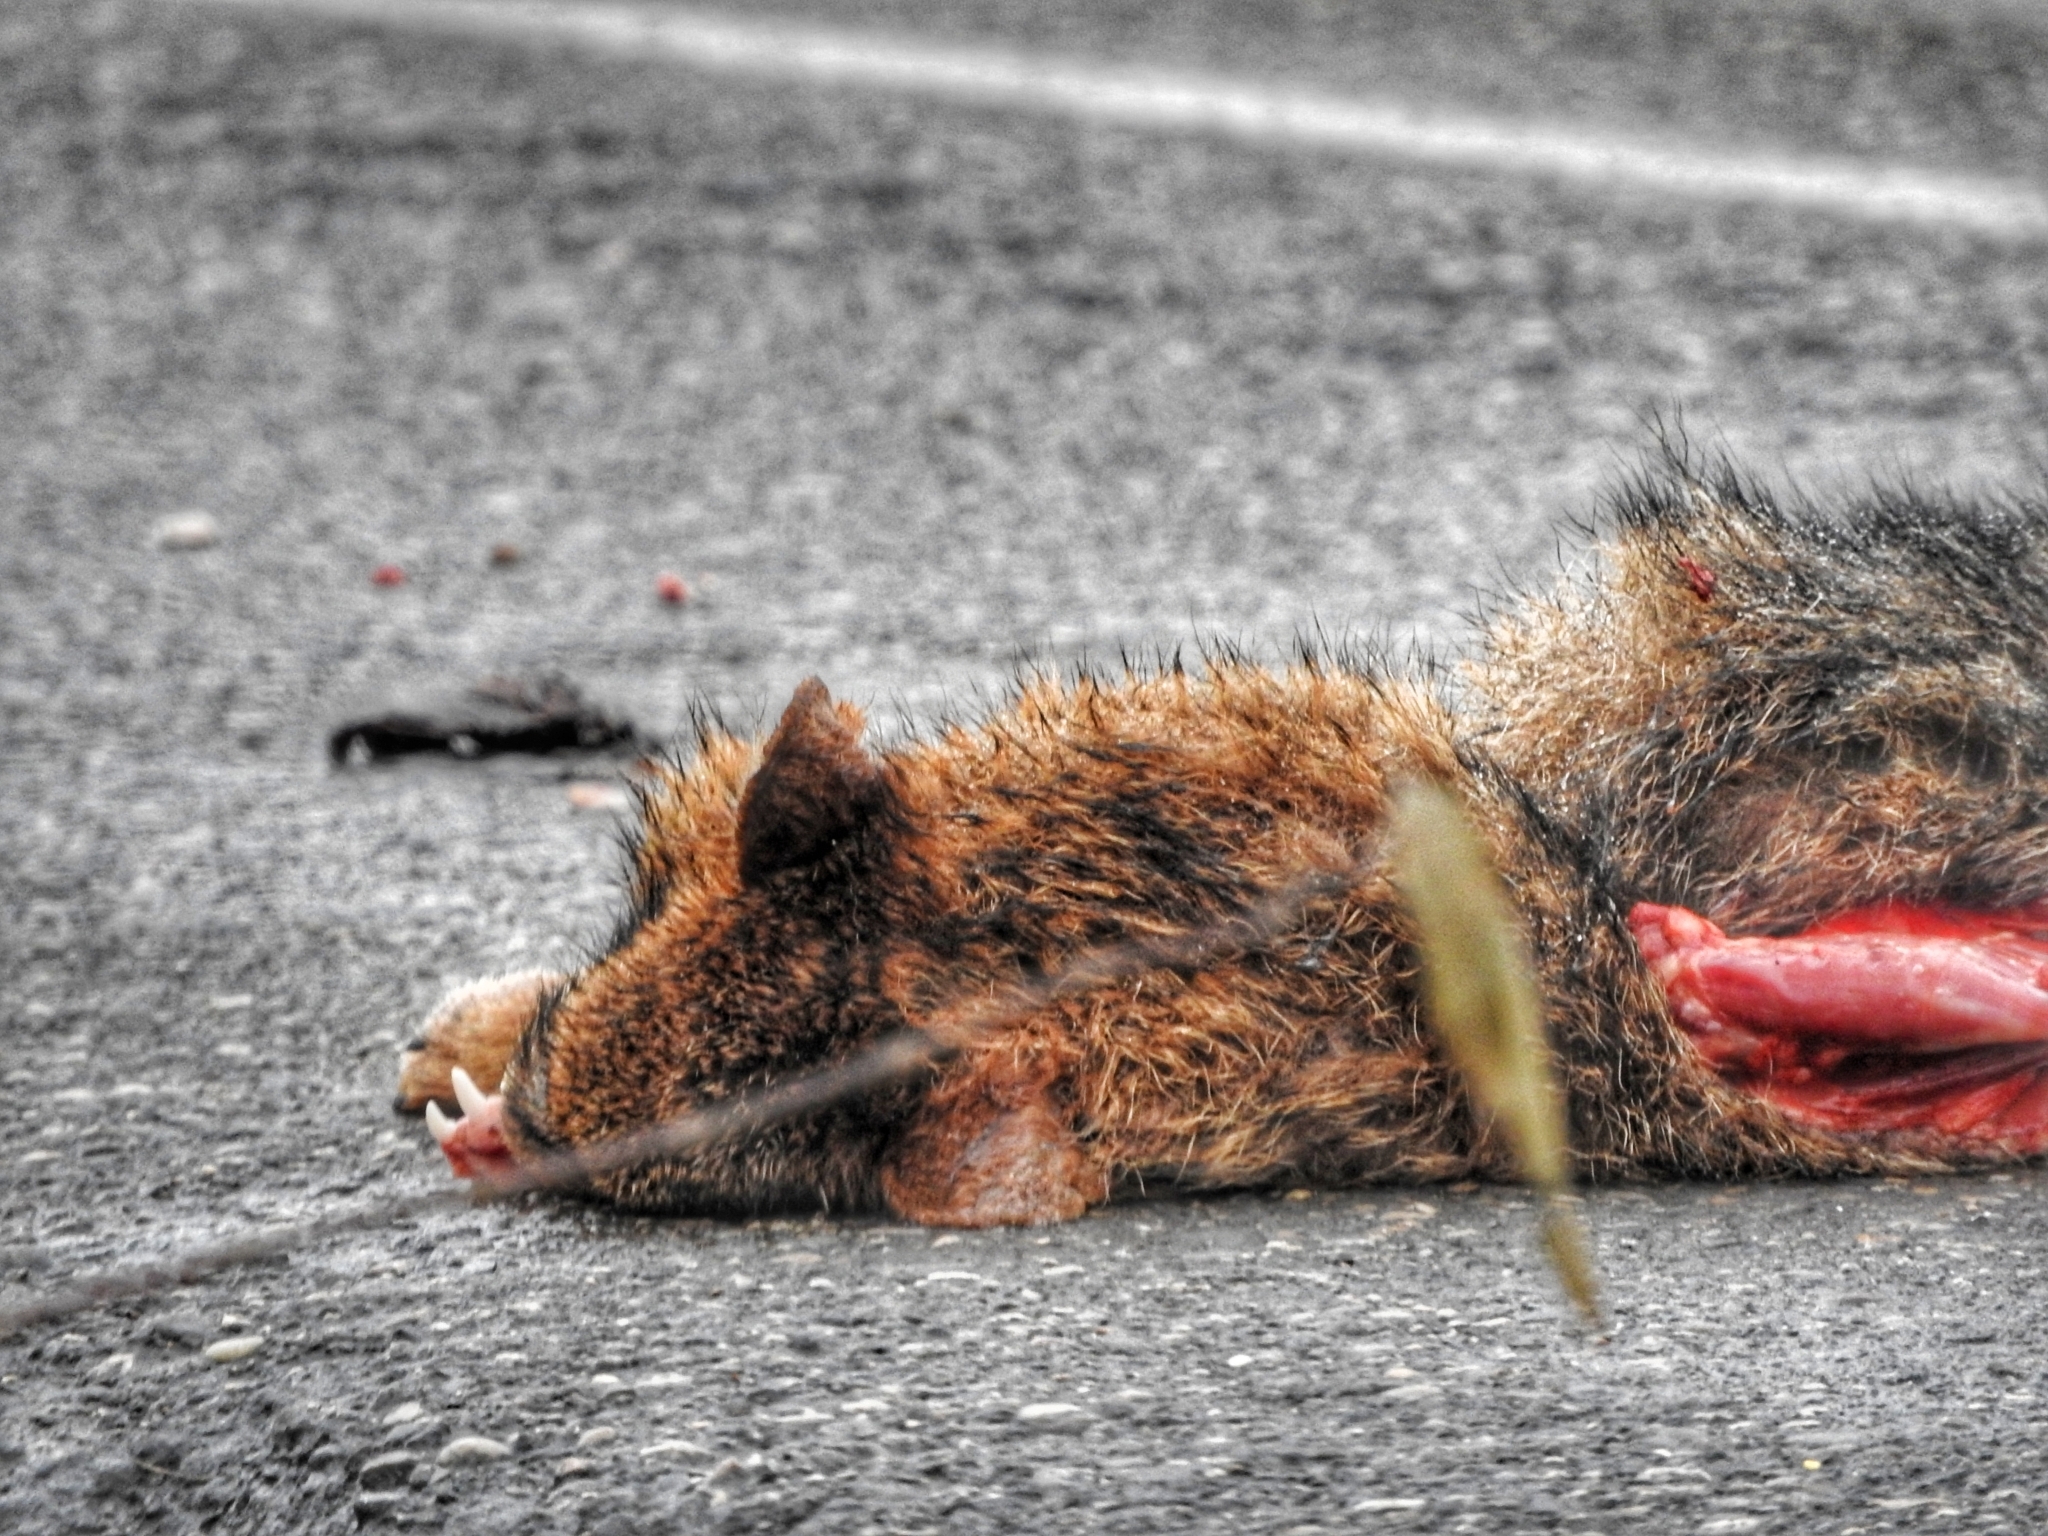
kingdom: Animalia
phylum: Chordata
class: Mammalia
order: Carnivora
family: Canidae
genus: Canis
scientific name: Canis aureus
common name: Golden jackal
